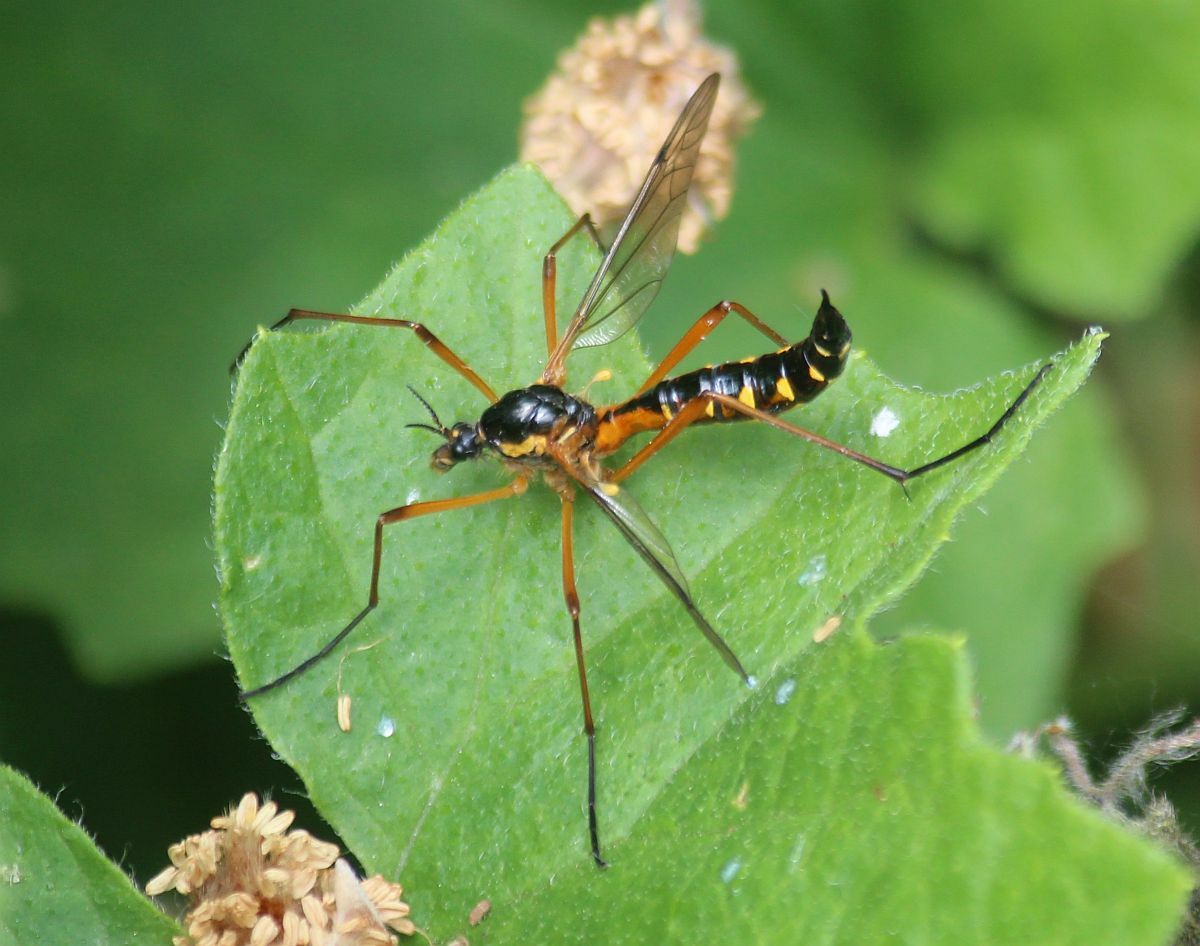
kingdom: Animalia
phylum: Arthropoda
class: Insecta
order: Diptera
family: Tipulidae
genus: Ctenophora
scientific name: Ctenophora pectinicornis
